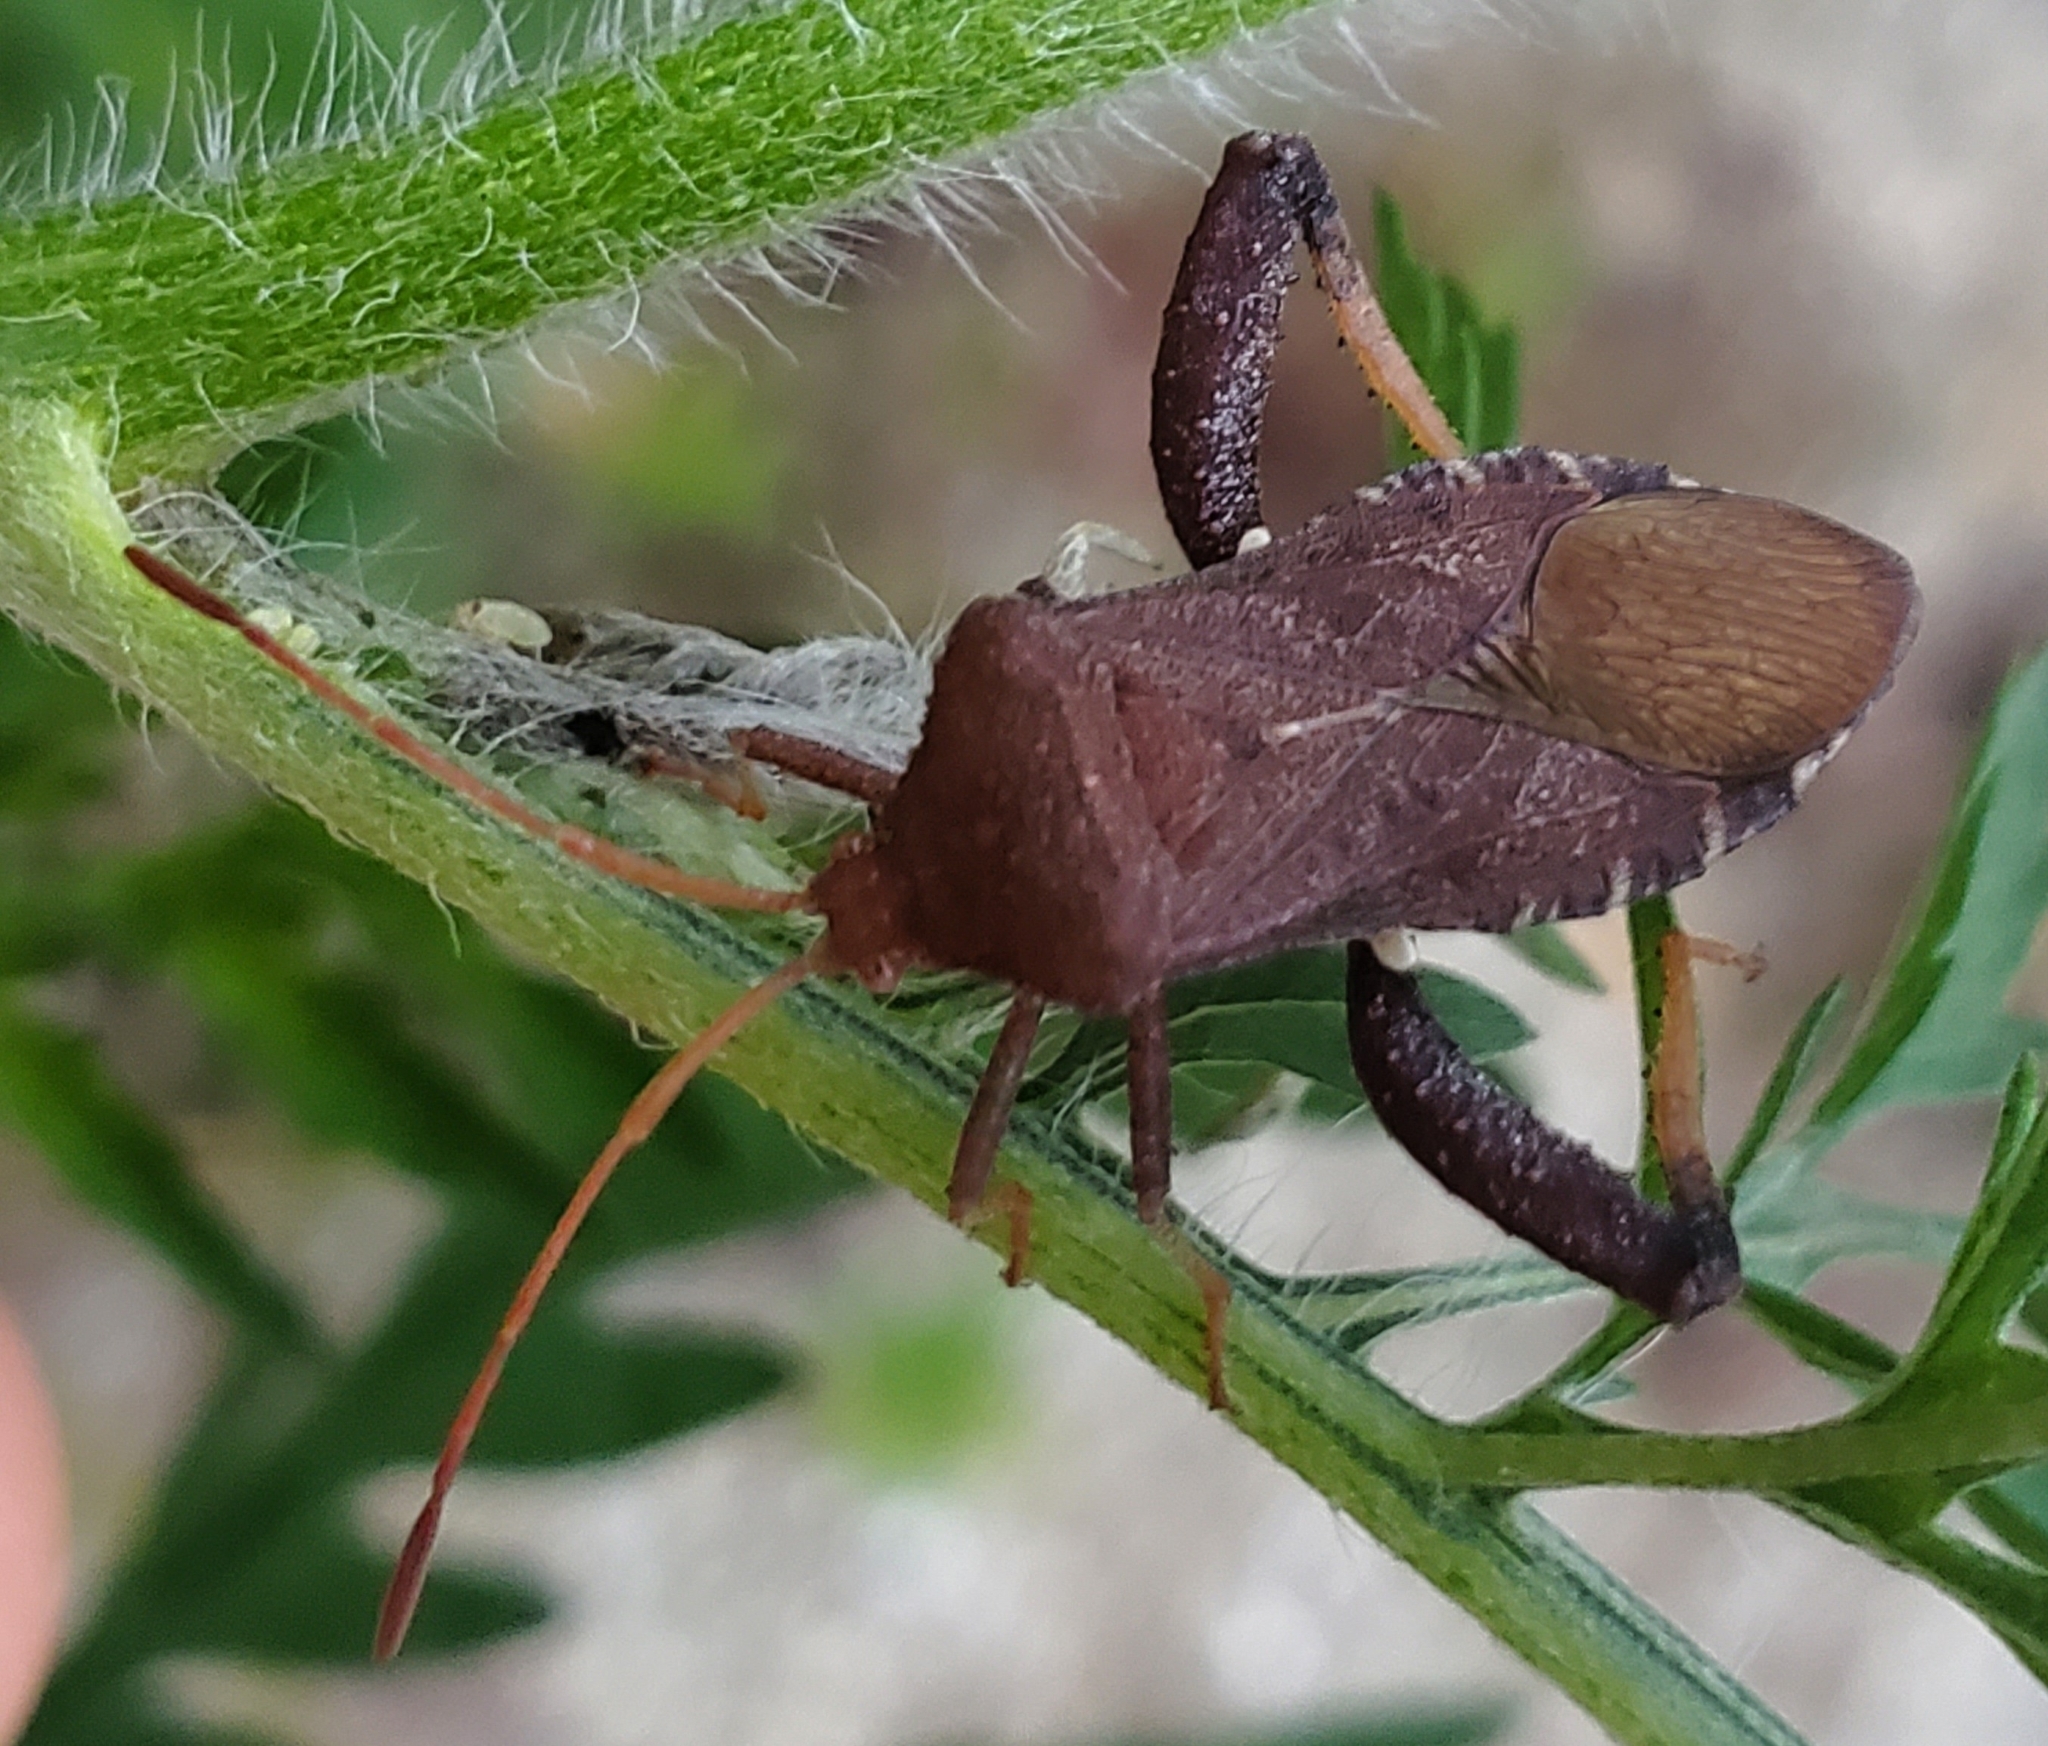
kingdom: Animalia
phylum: Arthropoda
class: Insecta
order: Hemiptera
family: Coreidae
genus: Euthochtha
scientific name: Euthochtha galeator
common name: Helmeted squash bug
